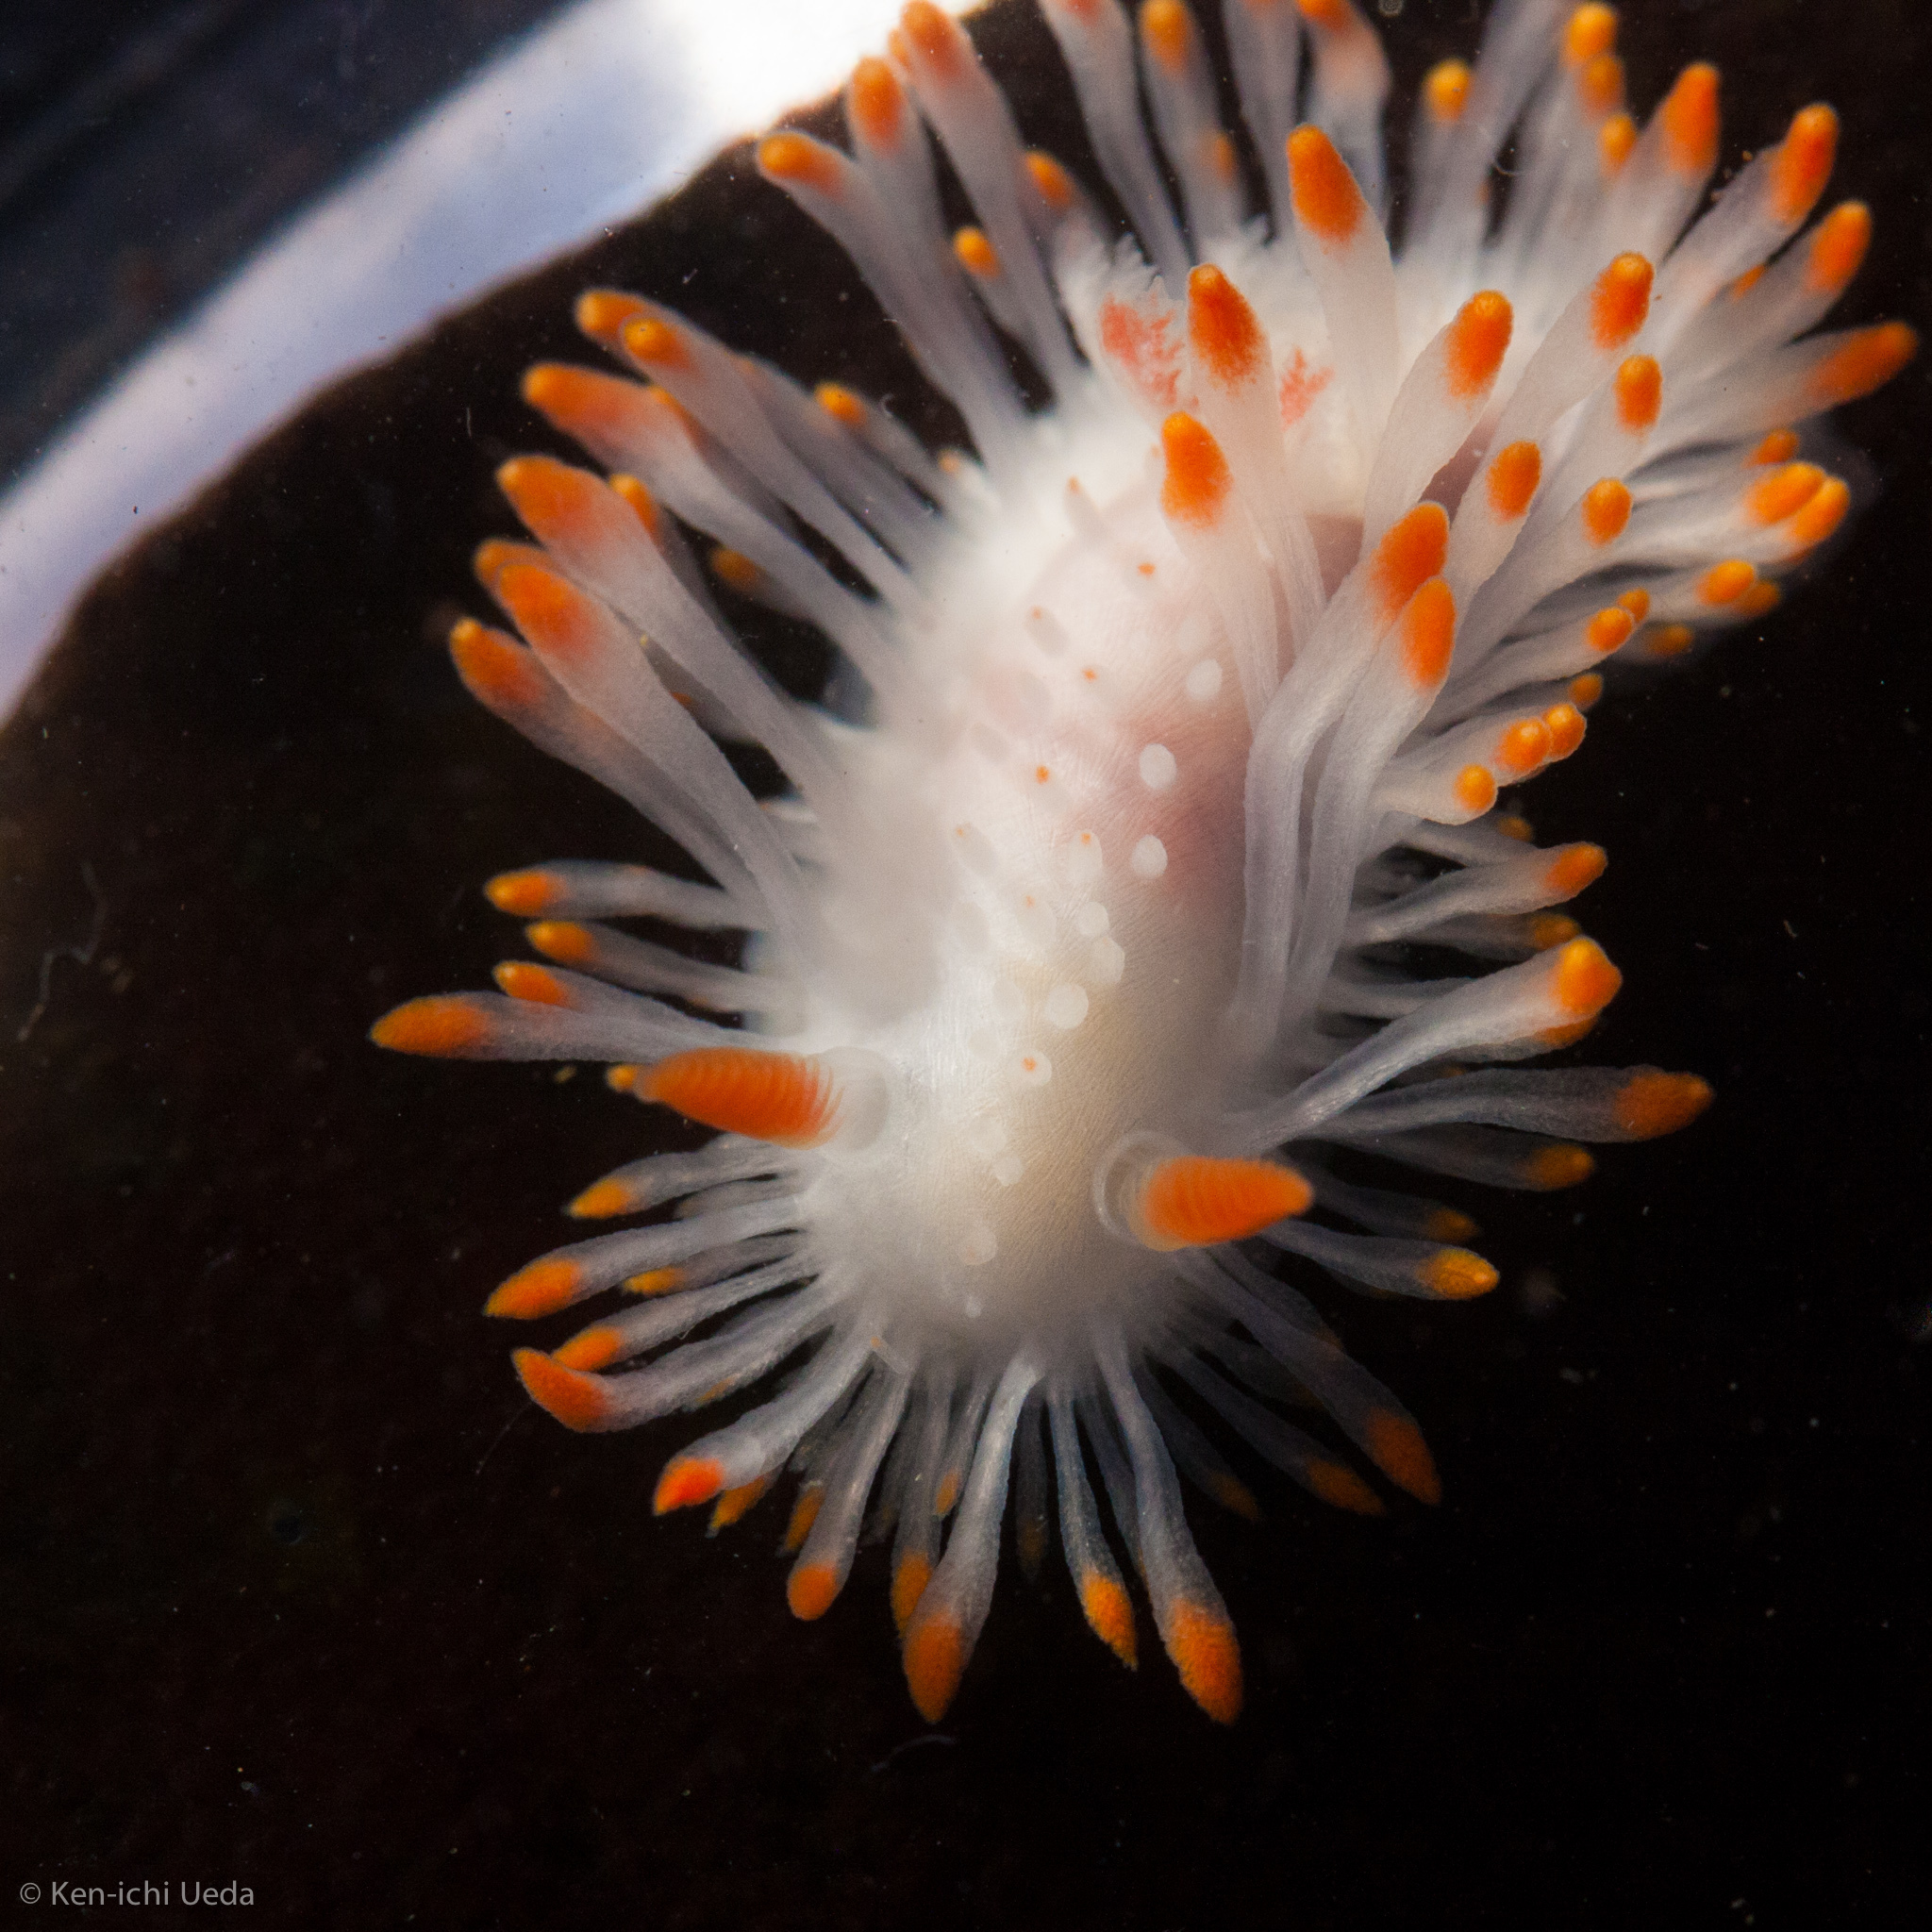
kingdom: Animalia
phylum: Mollusca
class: Gastropoda
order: Nudibranchia
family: Polyceridae
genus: Limacia
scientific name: Limacia cockerelli
